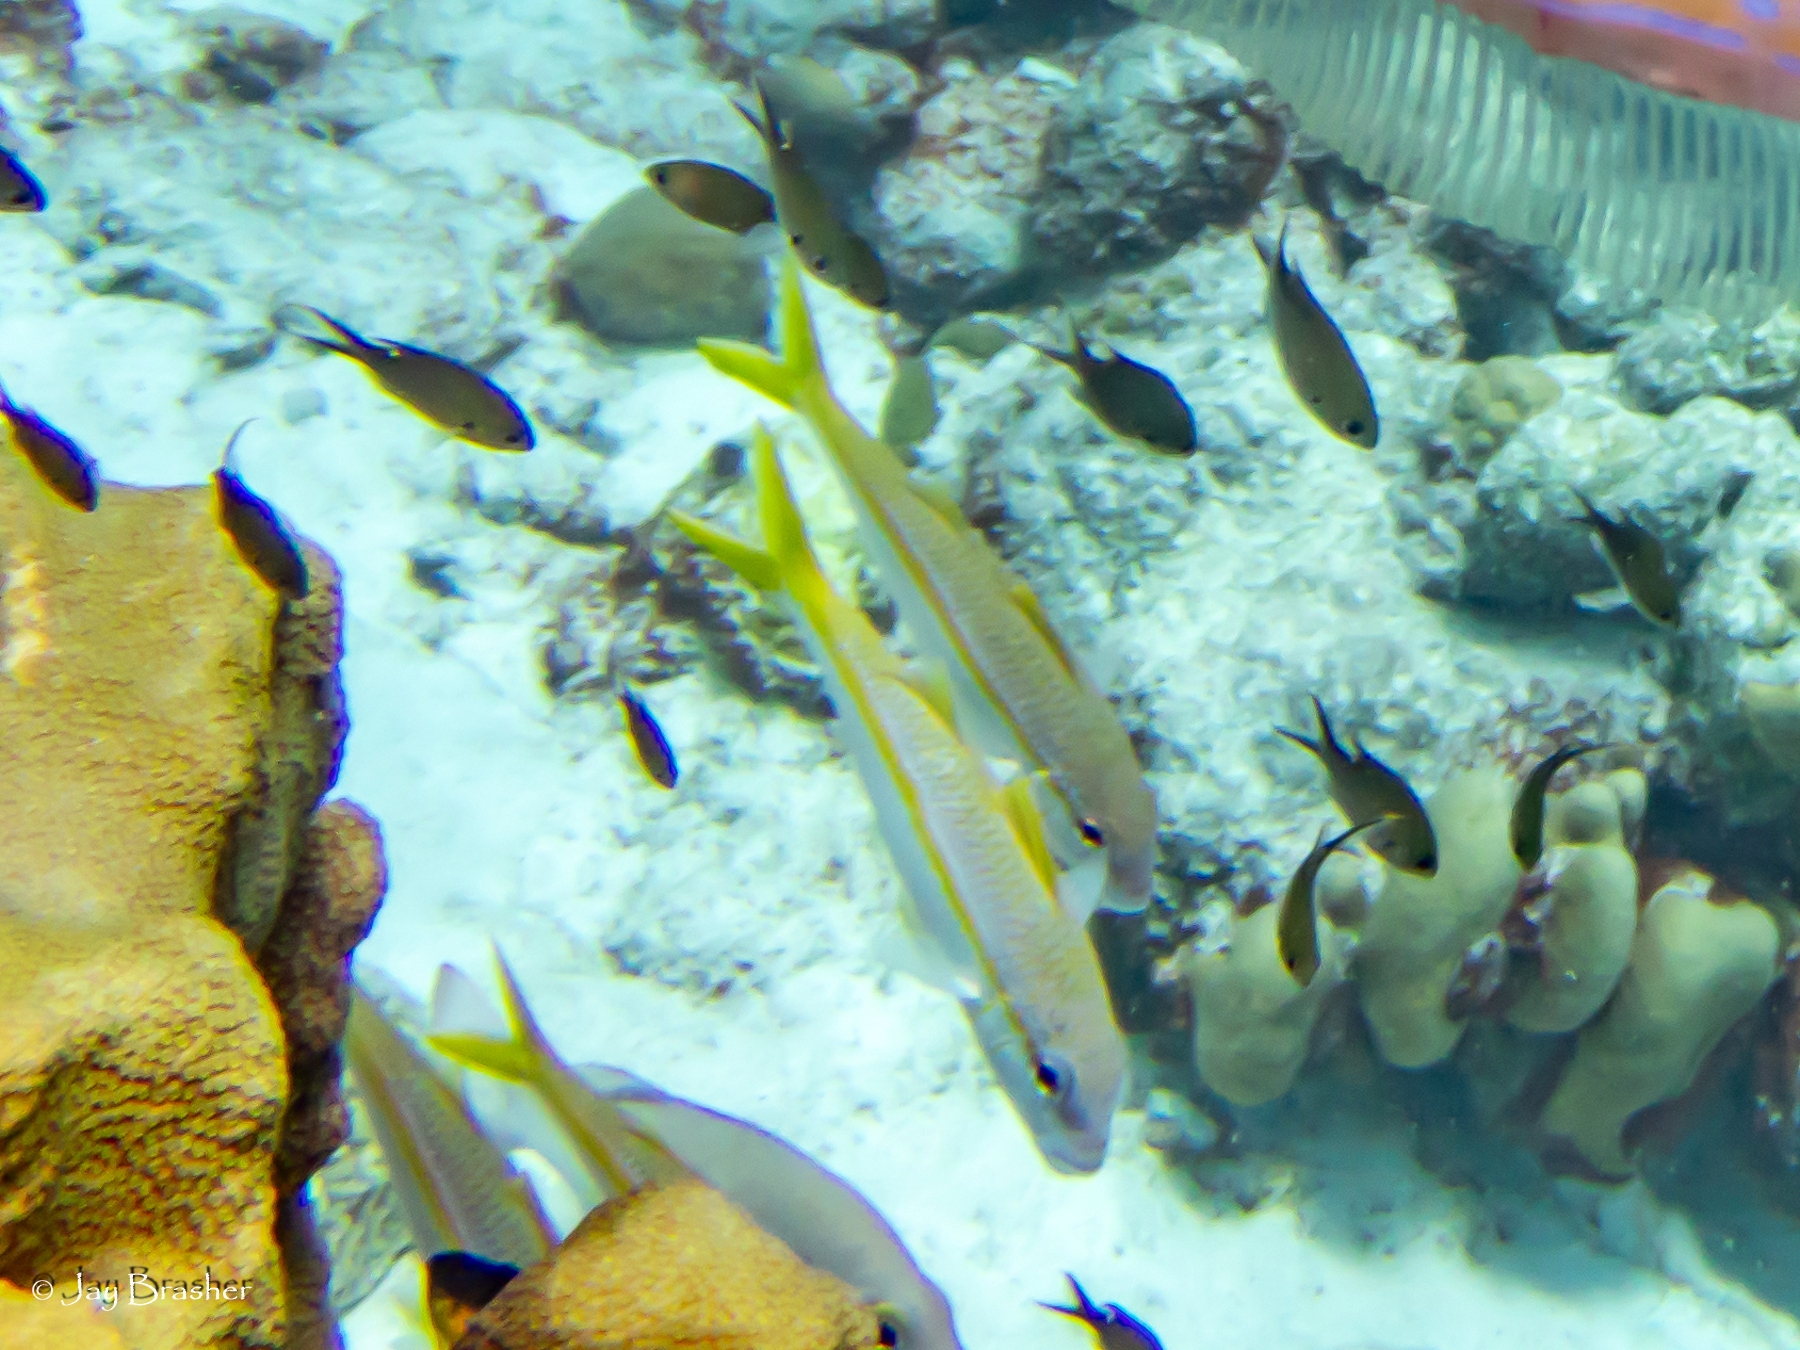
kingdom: Animalia
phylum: Chordata
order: Perciformes
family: Mullidae
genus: Mulloidichthys
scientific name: Mulloidichthys martinicus
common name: Yellow goatfish
